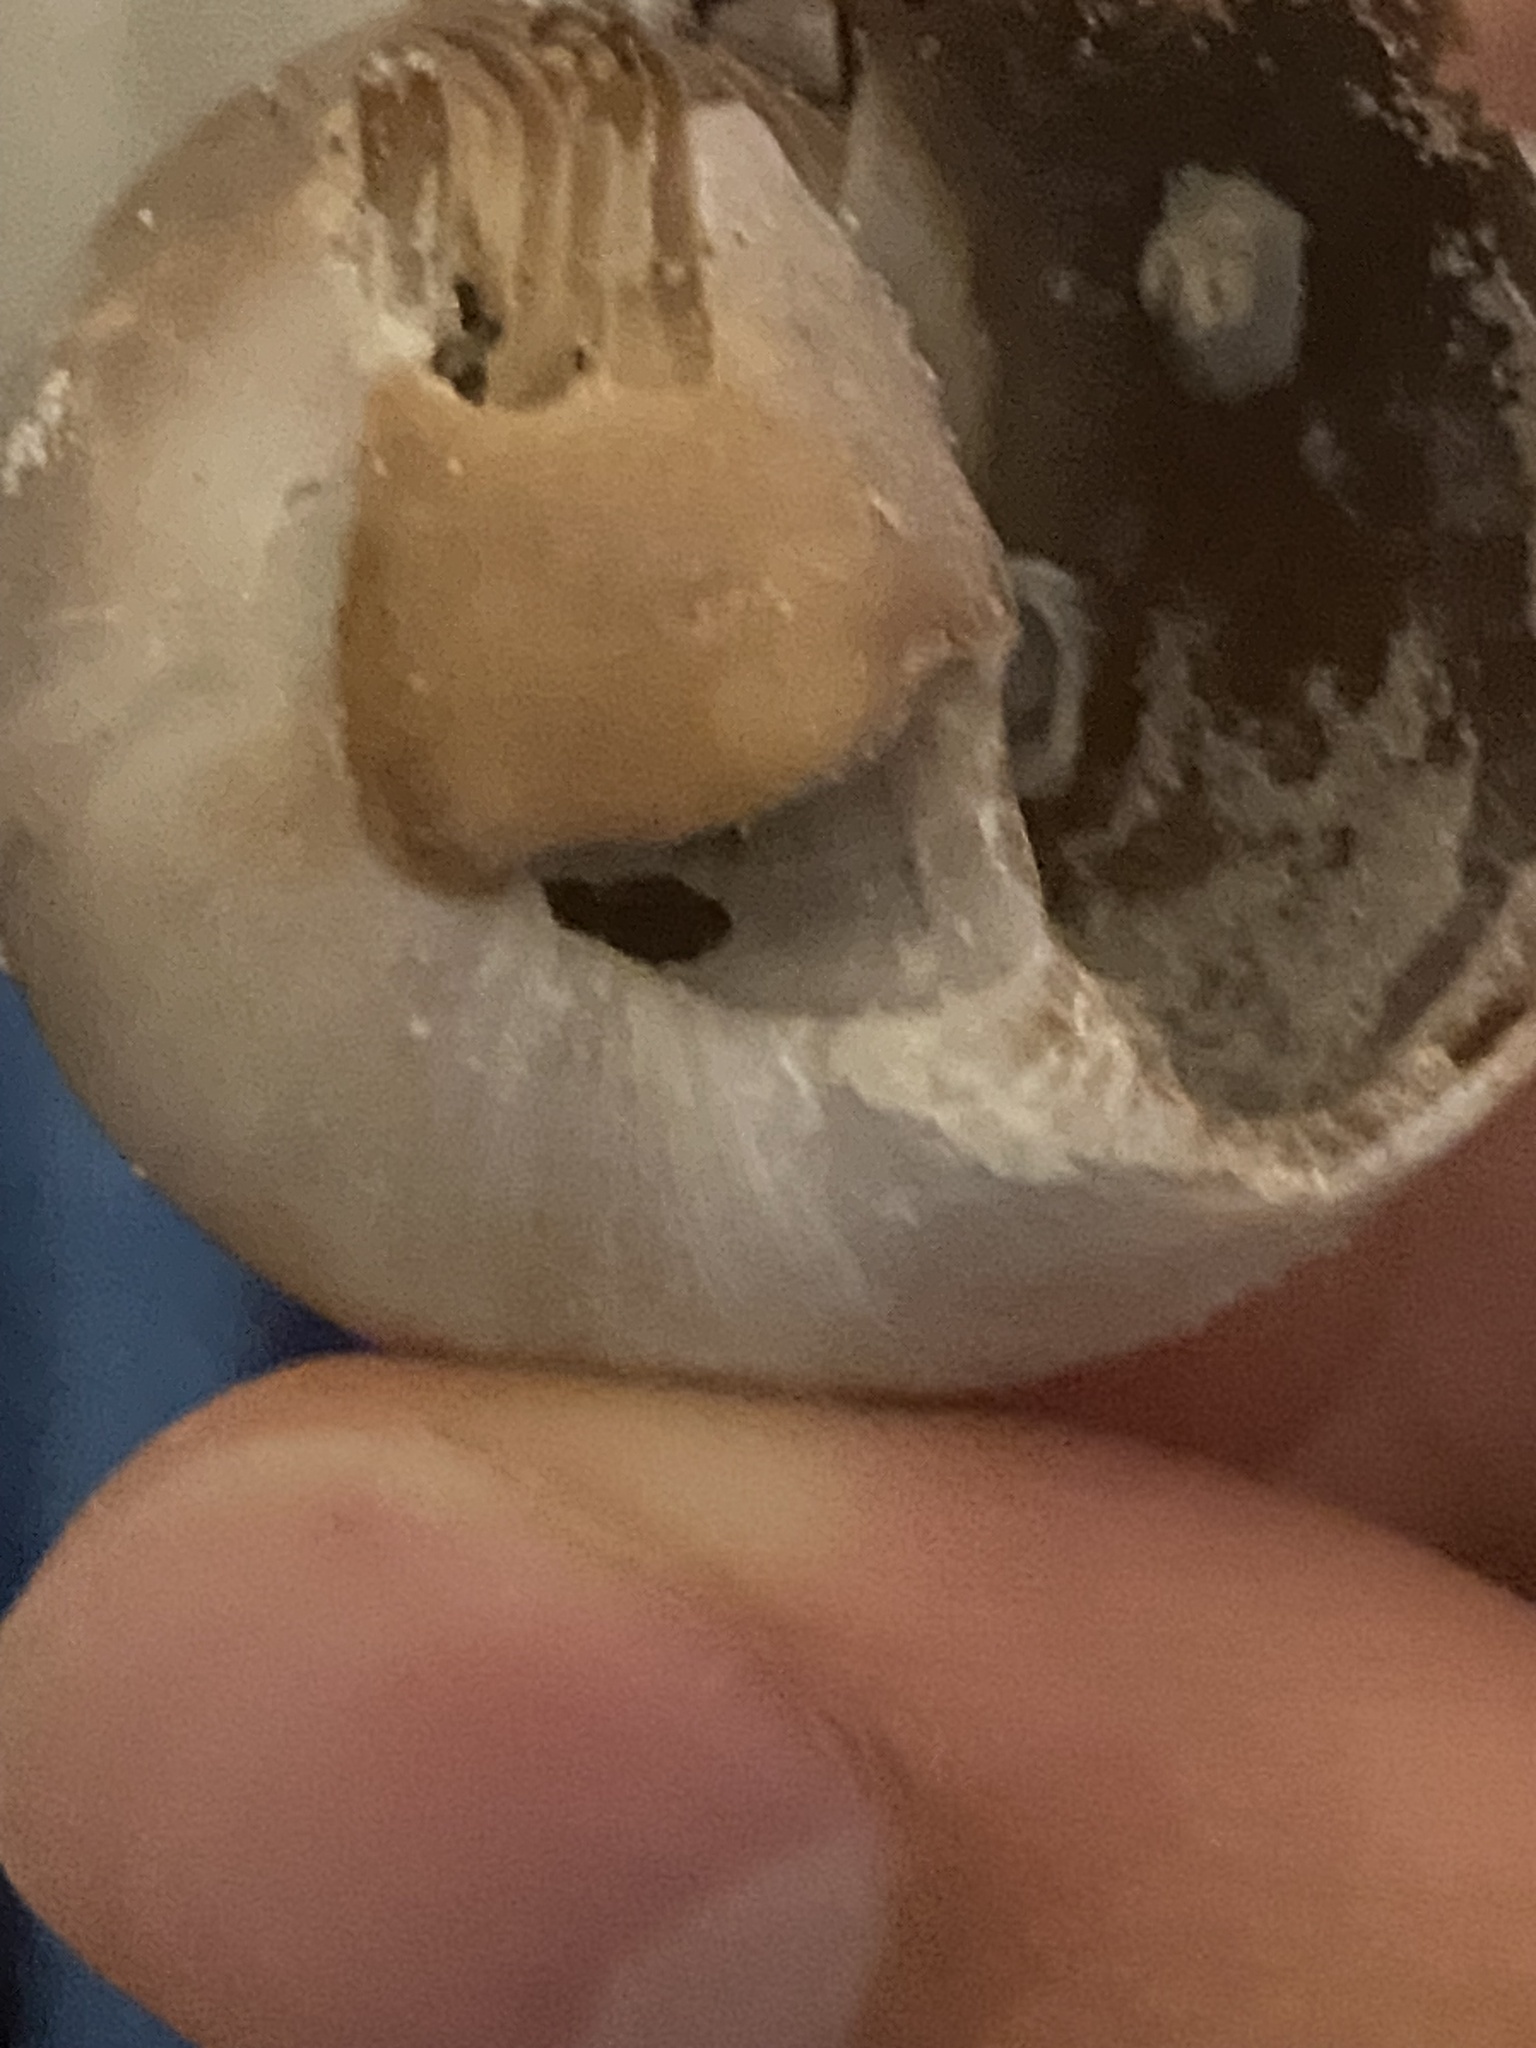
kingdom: Animalia
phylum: Mollusca
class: Gastropoda
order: Littorinimorpha
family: Naticidae
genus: Neverita
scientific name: Neverita delessertiana
